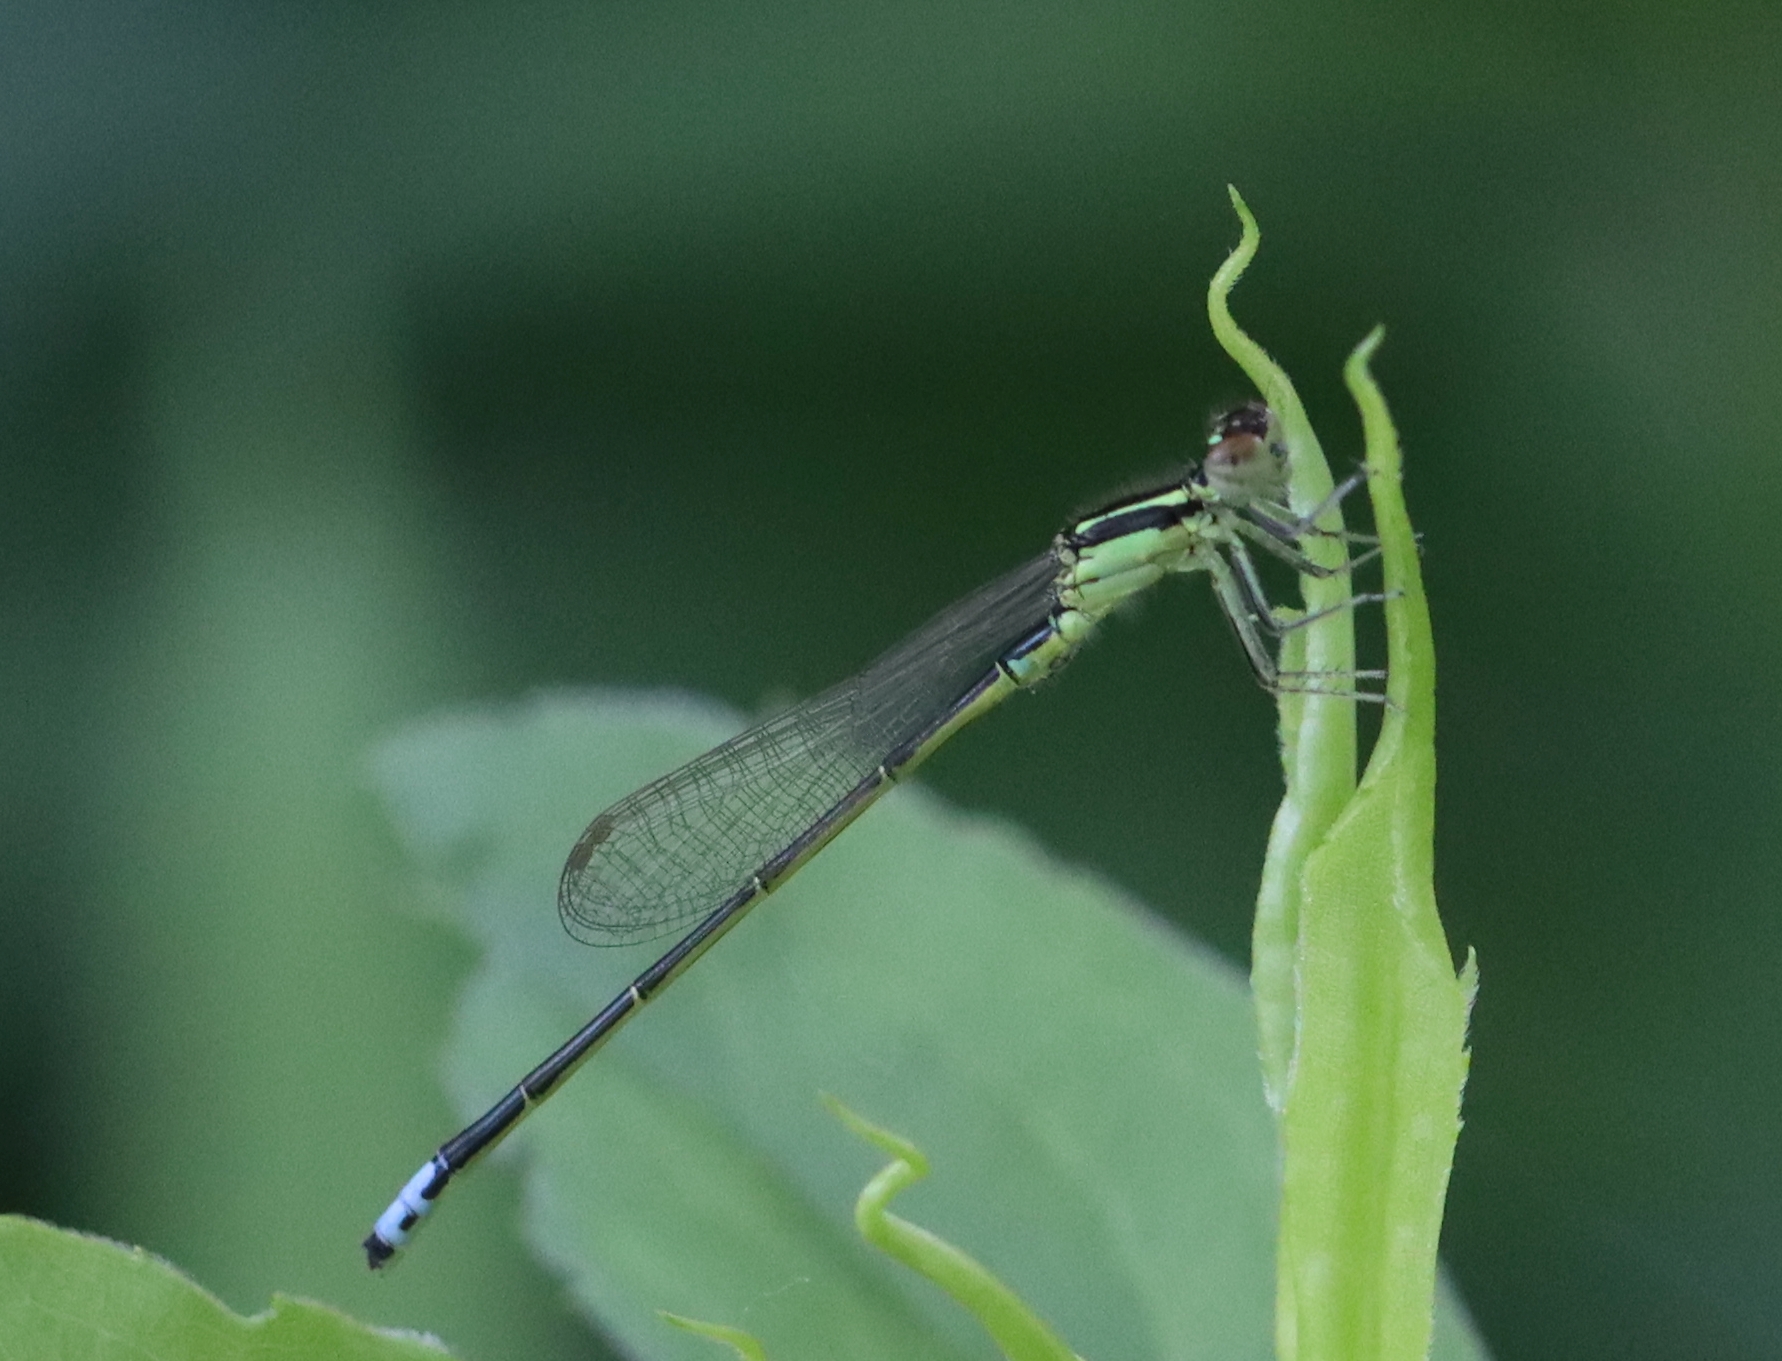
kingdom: Animalia
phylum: Arthropoda
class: Insecta
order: Odonata
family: Coenagrionidae
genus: Ischnura
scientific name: Ischnura verticalis
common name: Eastern forktail
